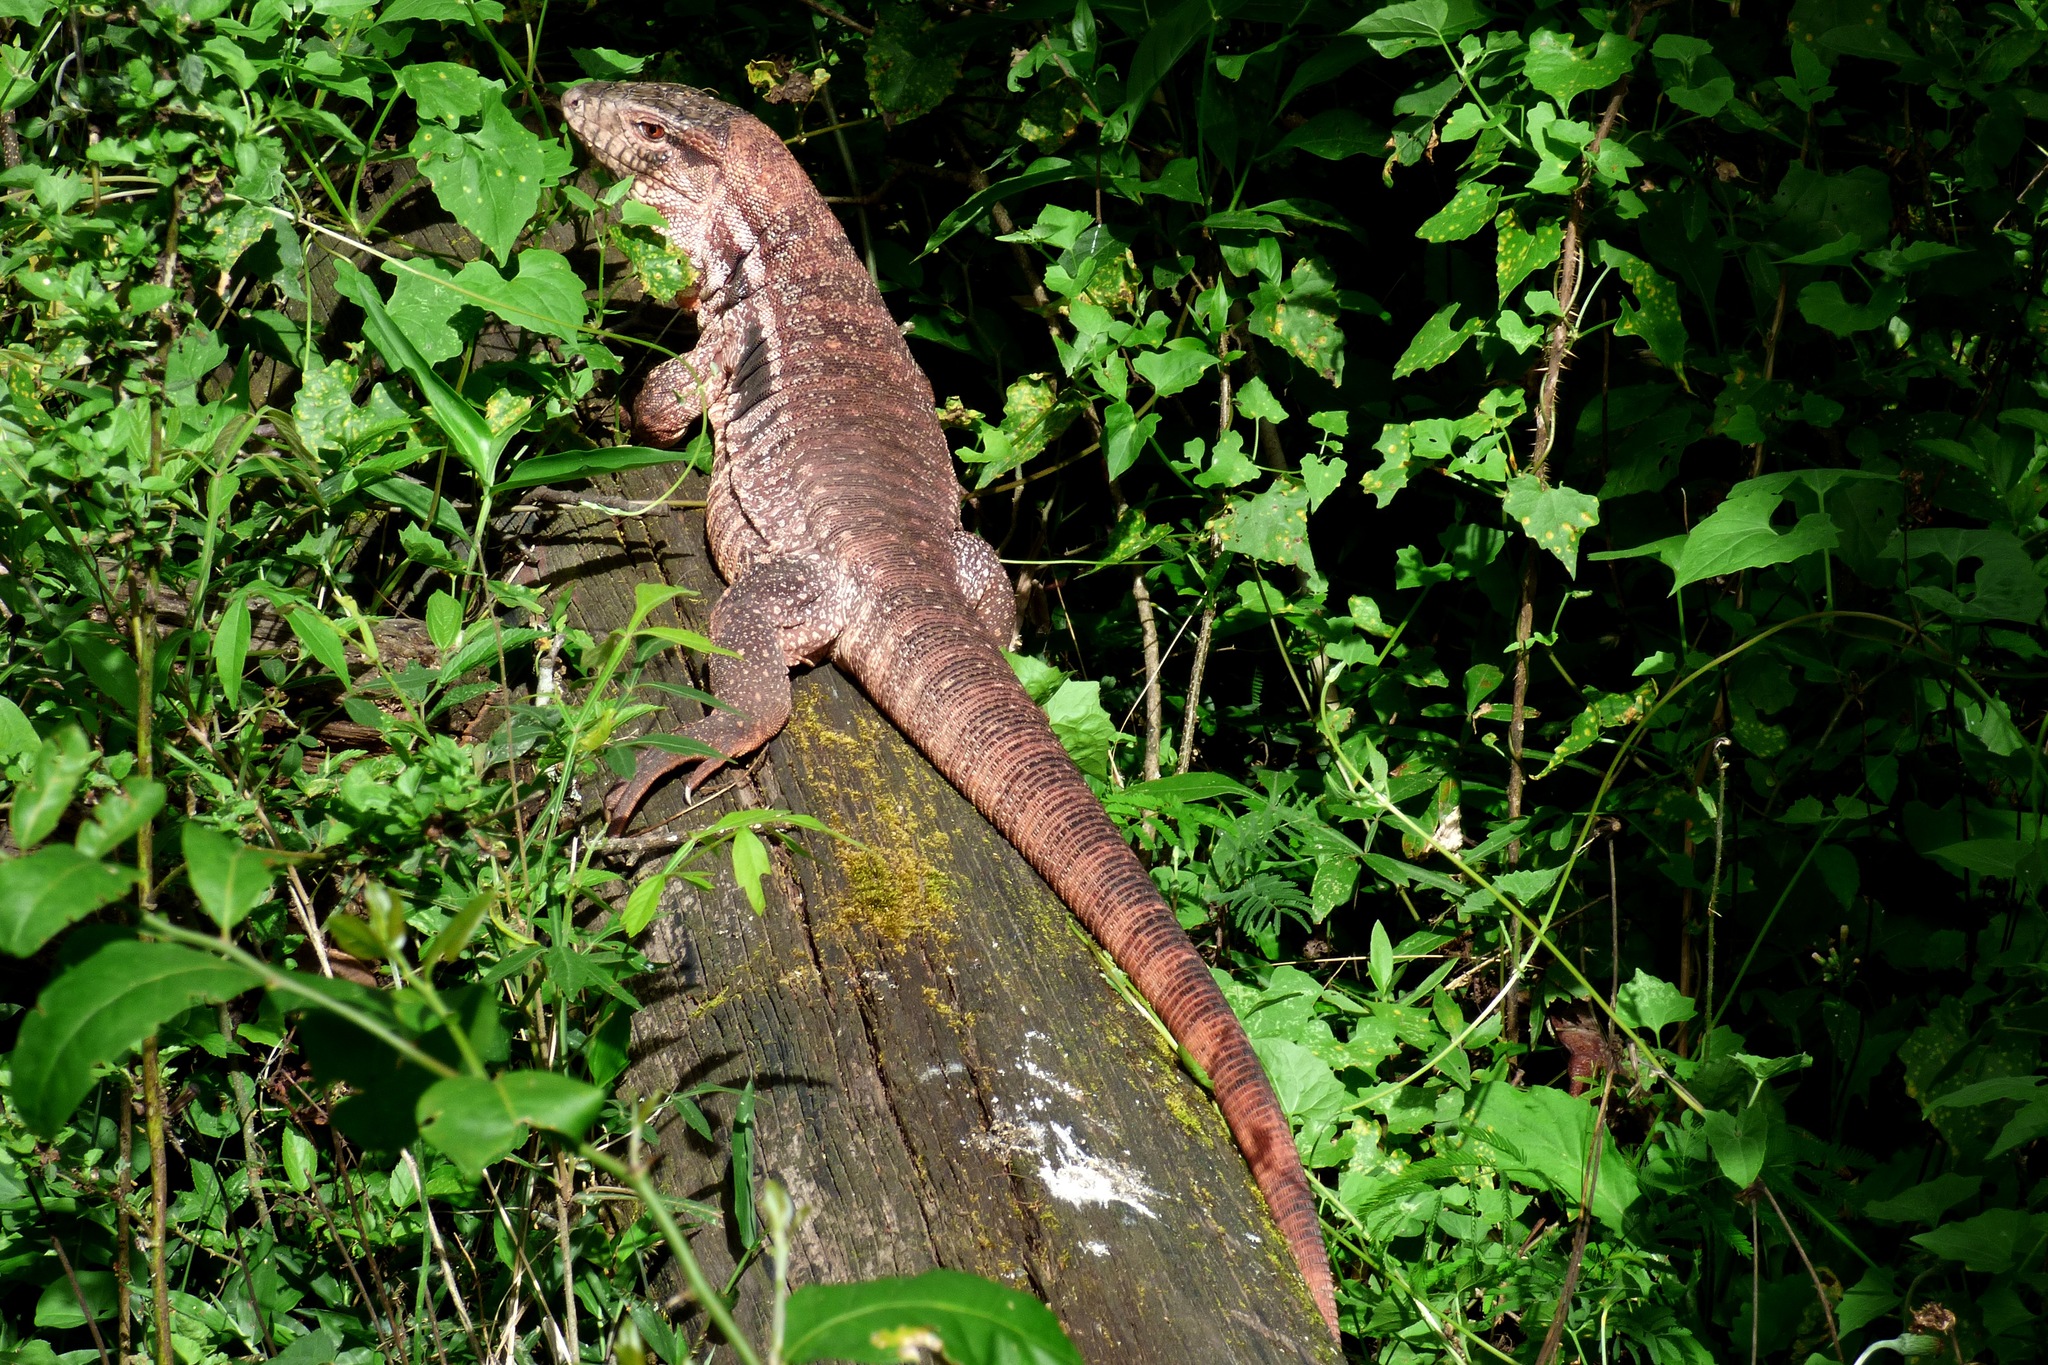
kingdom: Animalia
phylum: Chordata
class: Squamata
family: Teiidae
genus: Salvator
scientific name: Salvator rufescens
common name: Red tegu
